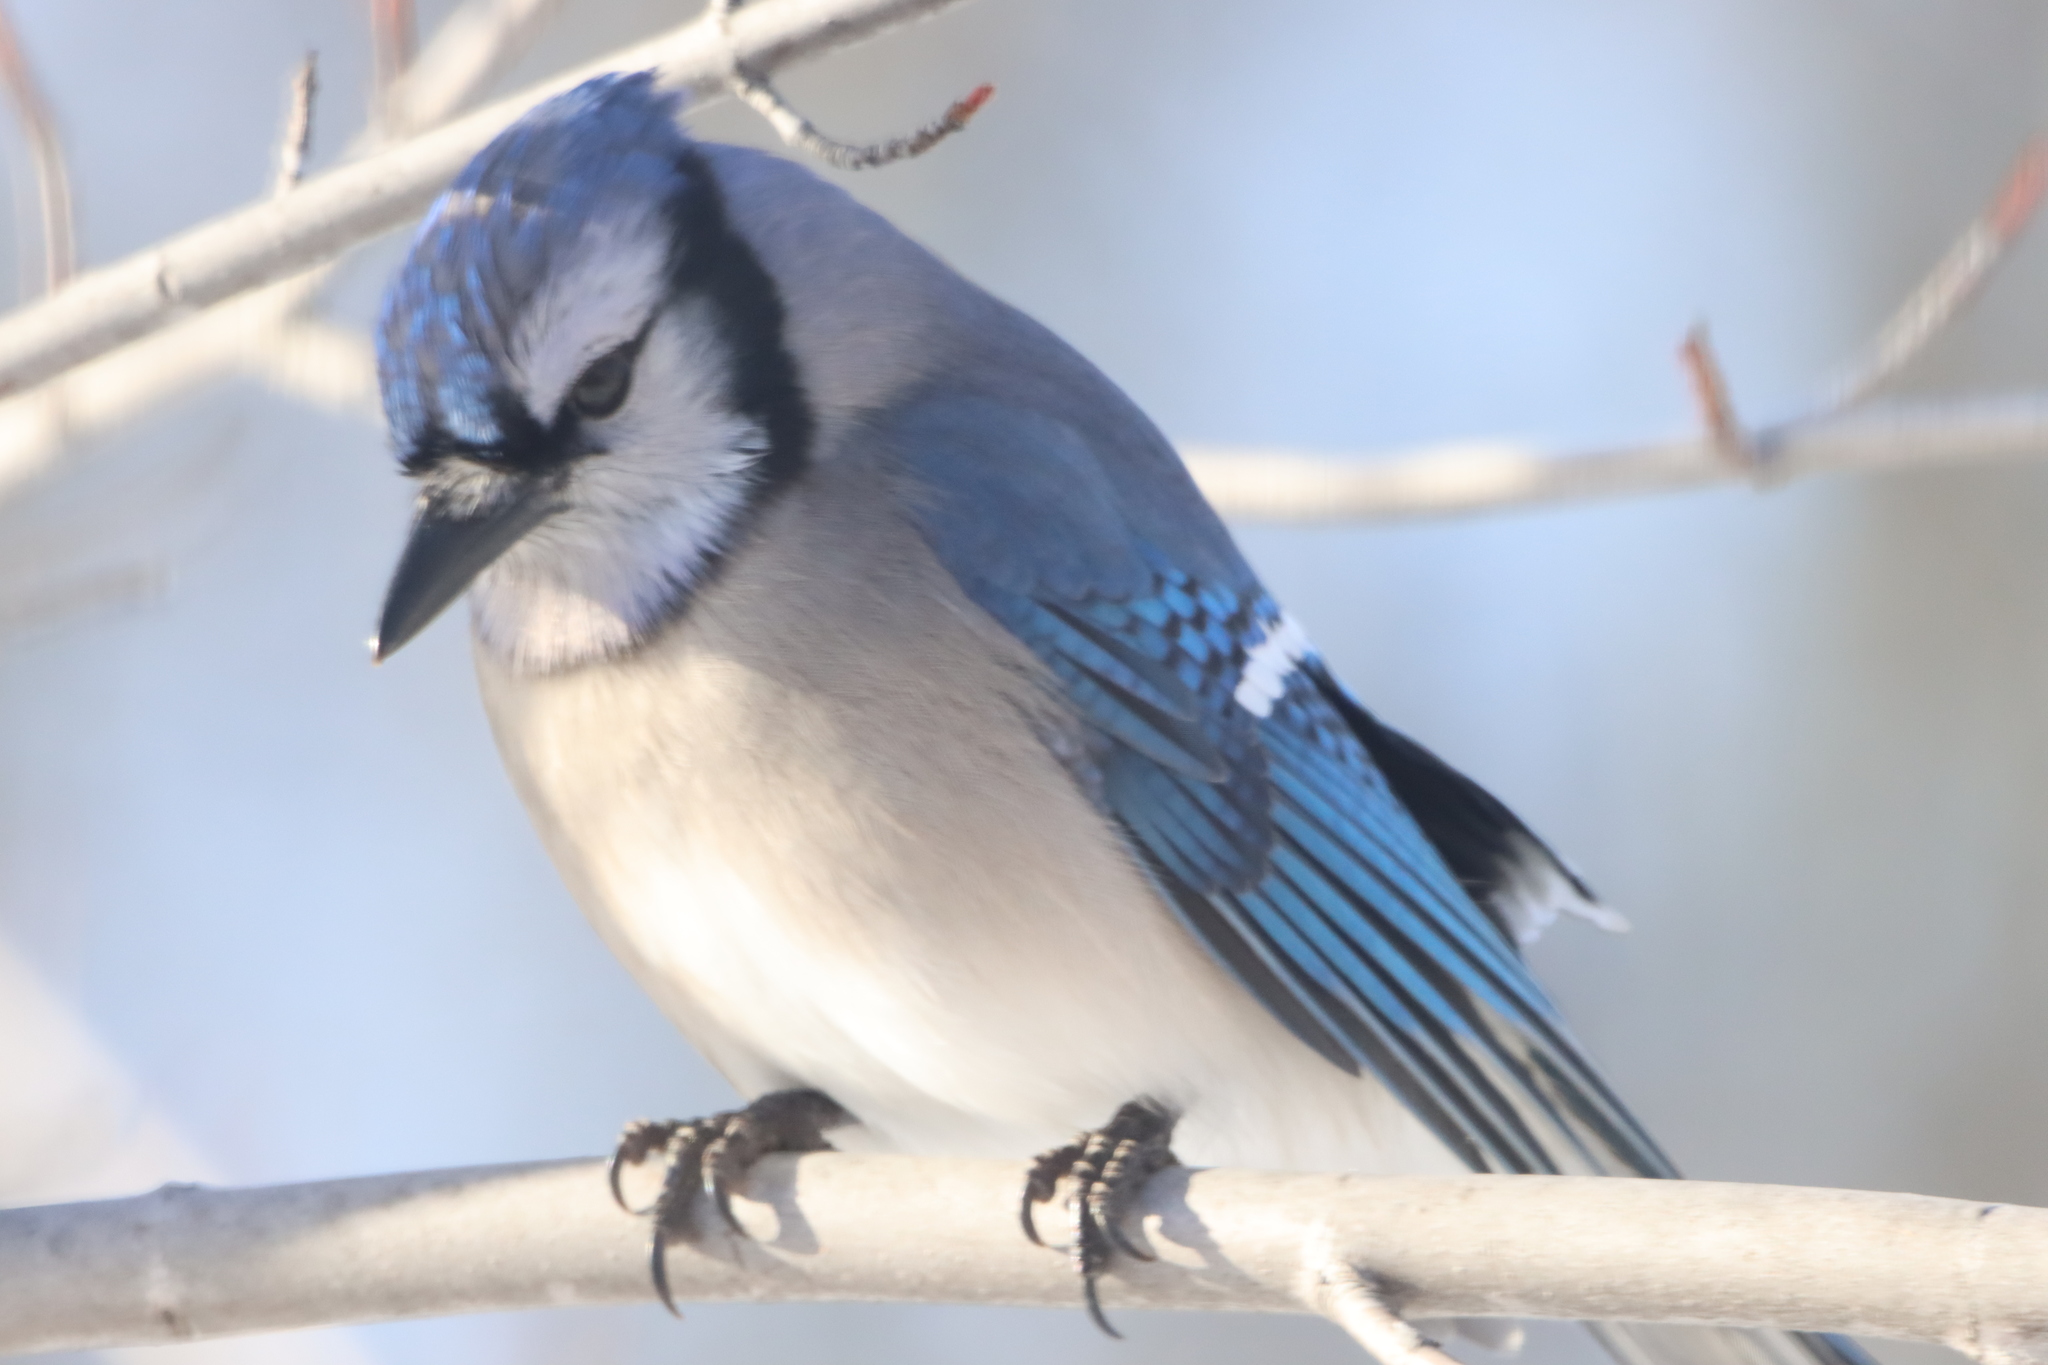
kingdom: Animalia
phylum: Chordata
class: Aves
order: Passeriformes
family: Corvidae
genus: Cyanocitta
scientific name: Cyanocitta cristata
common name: Blue jay
